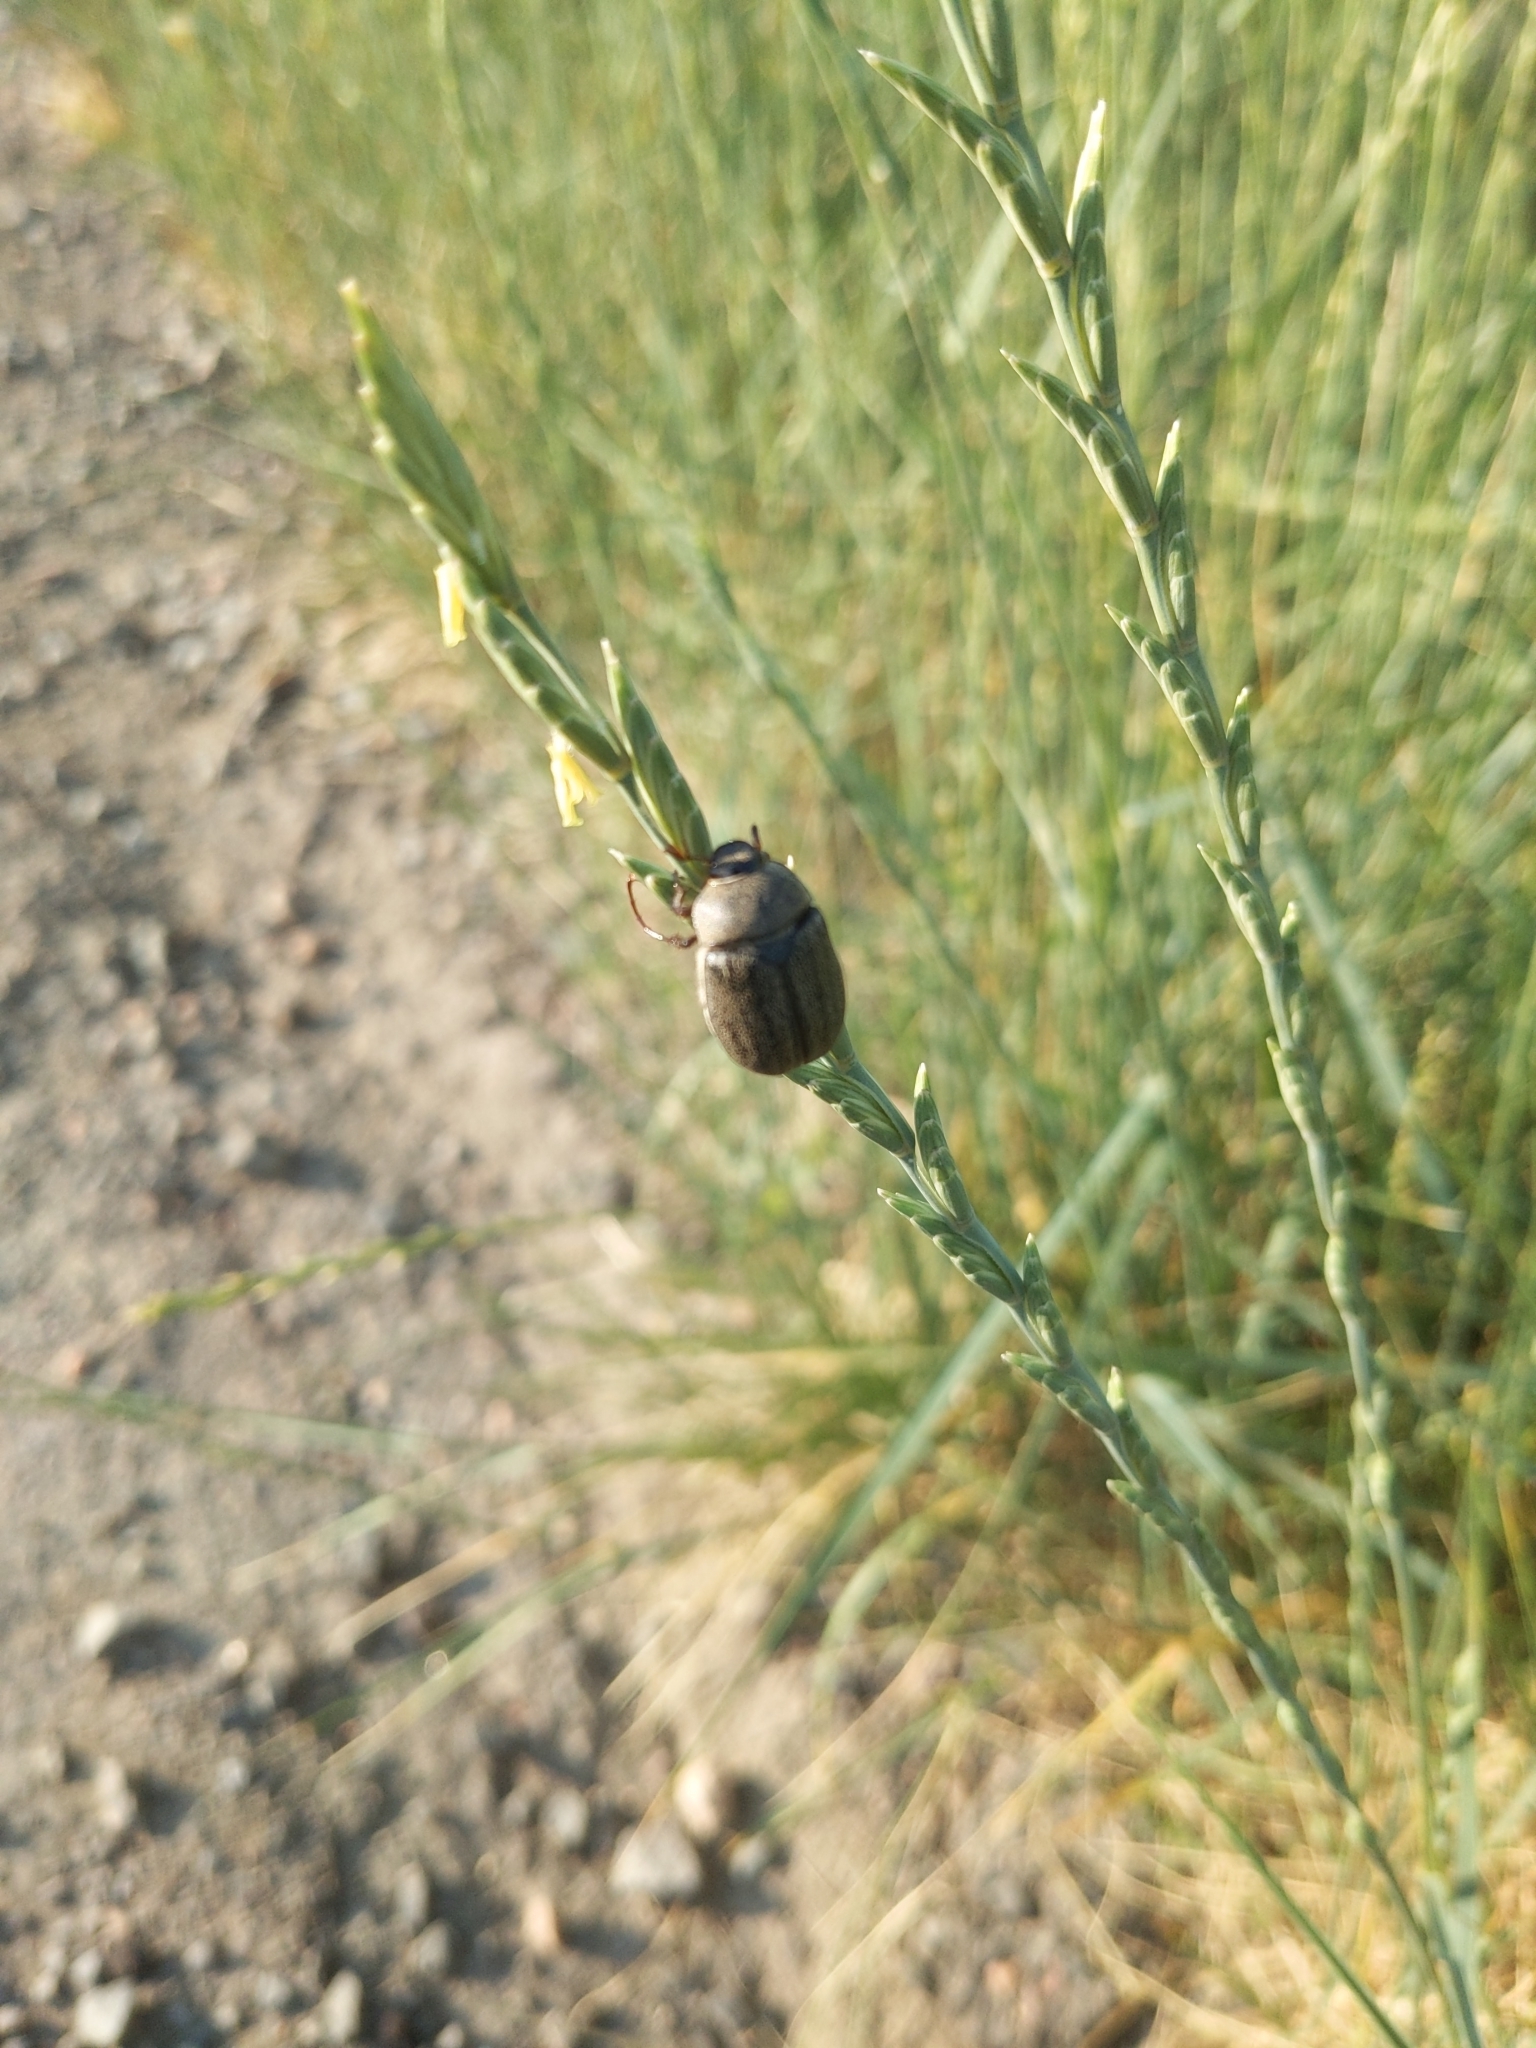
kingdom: Animalia
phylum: Arthropoda
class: Insecta
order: Coleoptera
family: Scarabaeidae
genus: Phyllophaga
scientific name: Phyllophaga lanceolata
